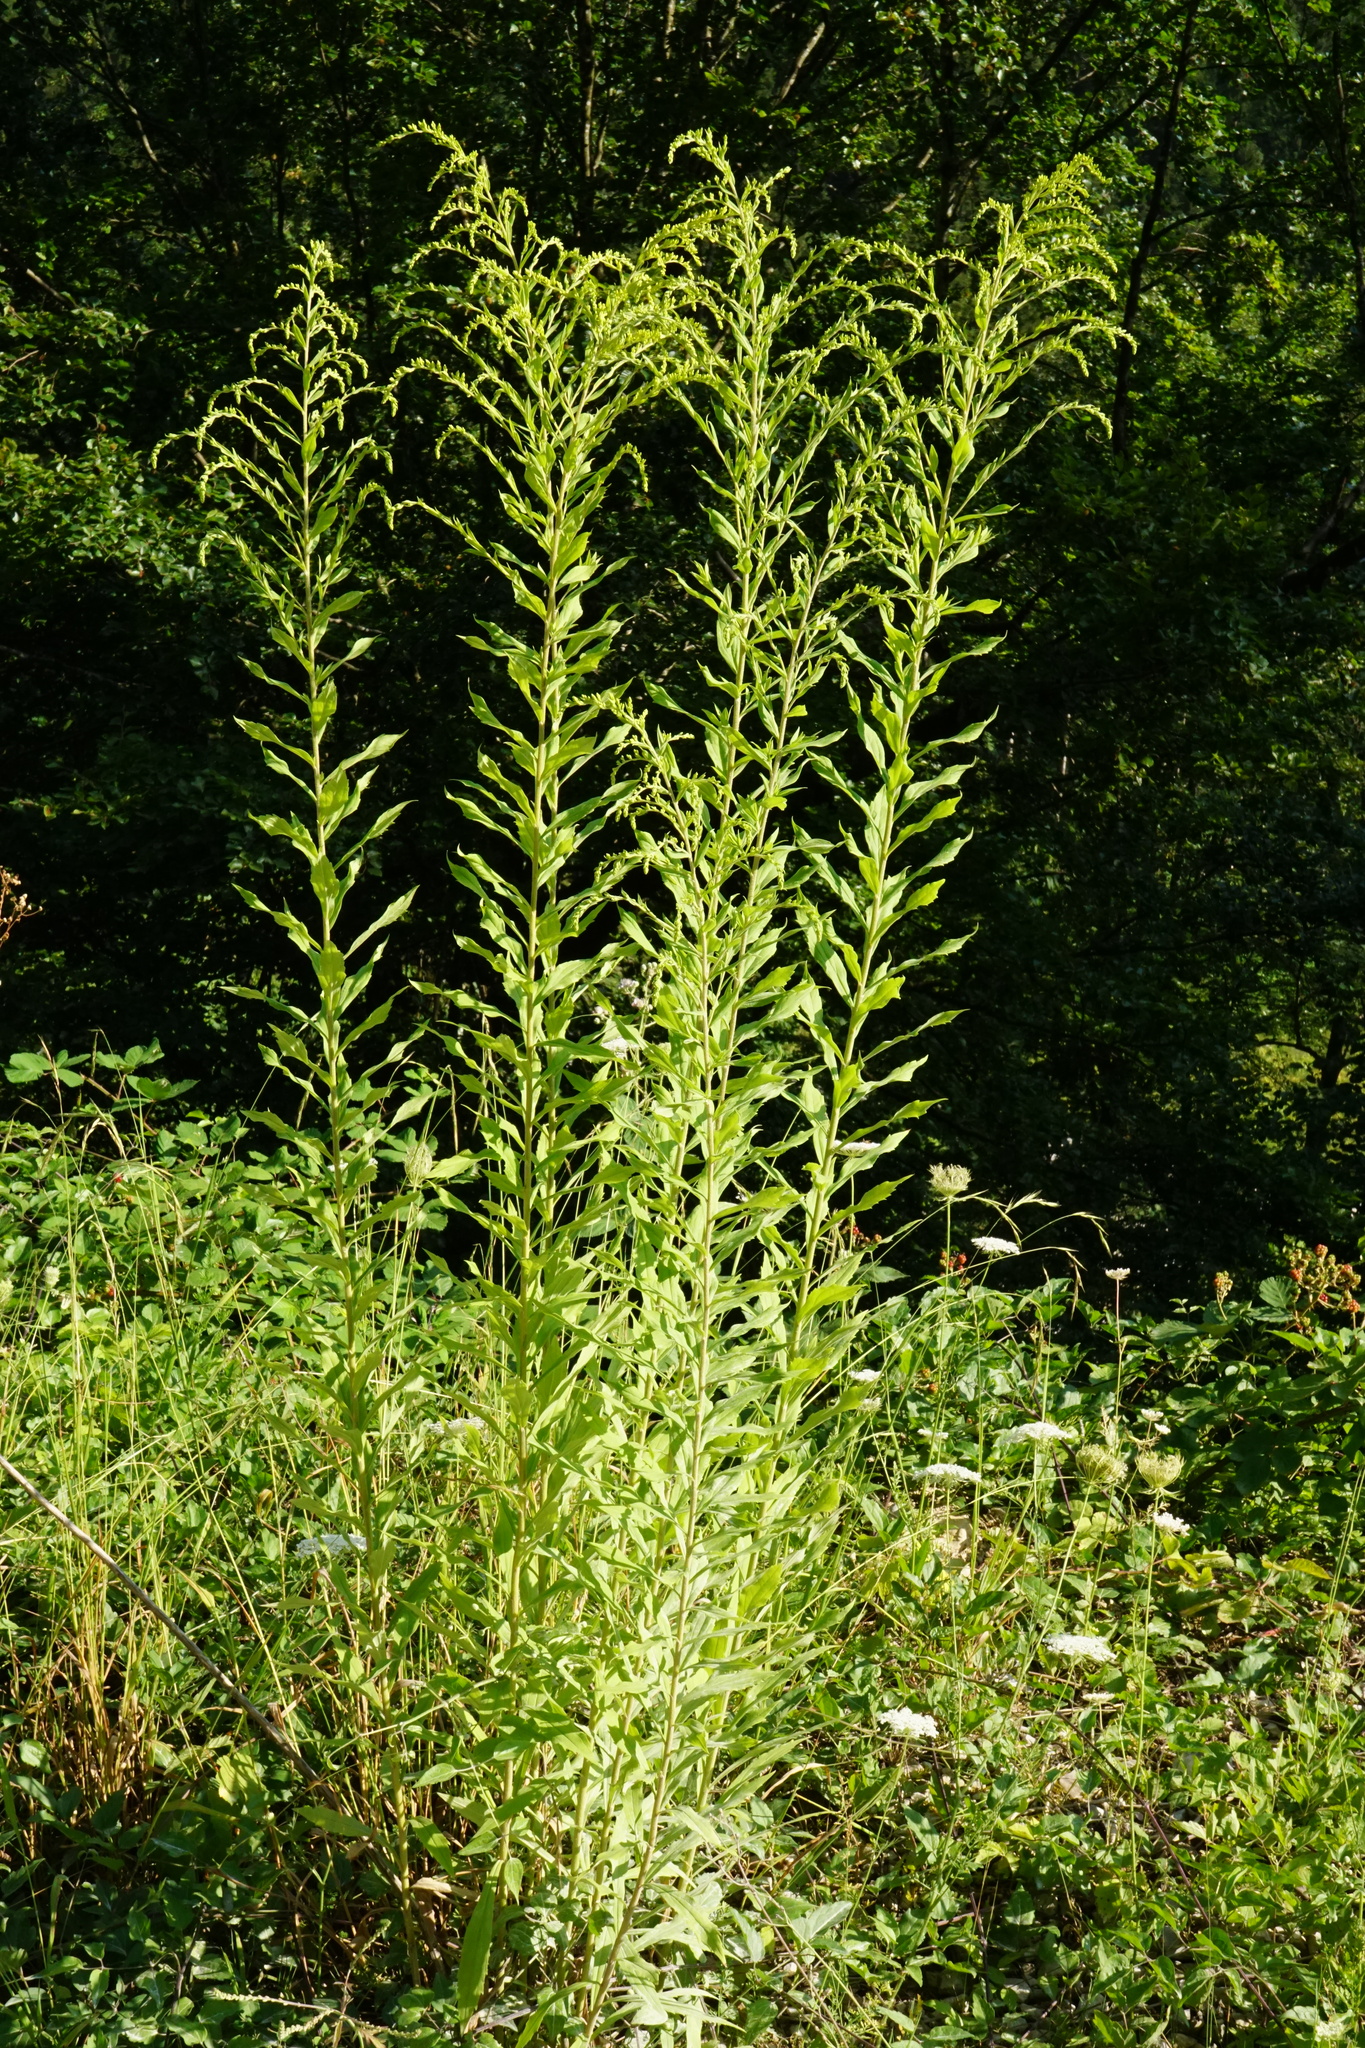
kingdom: Plantae
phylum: Tracheophyta
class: Magnoliopsida
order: Asterales
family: Asteraceae
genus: Solidago
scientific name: Solidago canadensis
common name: Canada goldenrod
